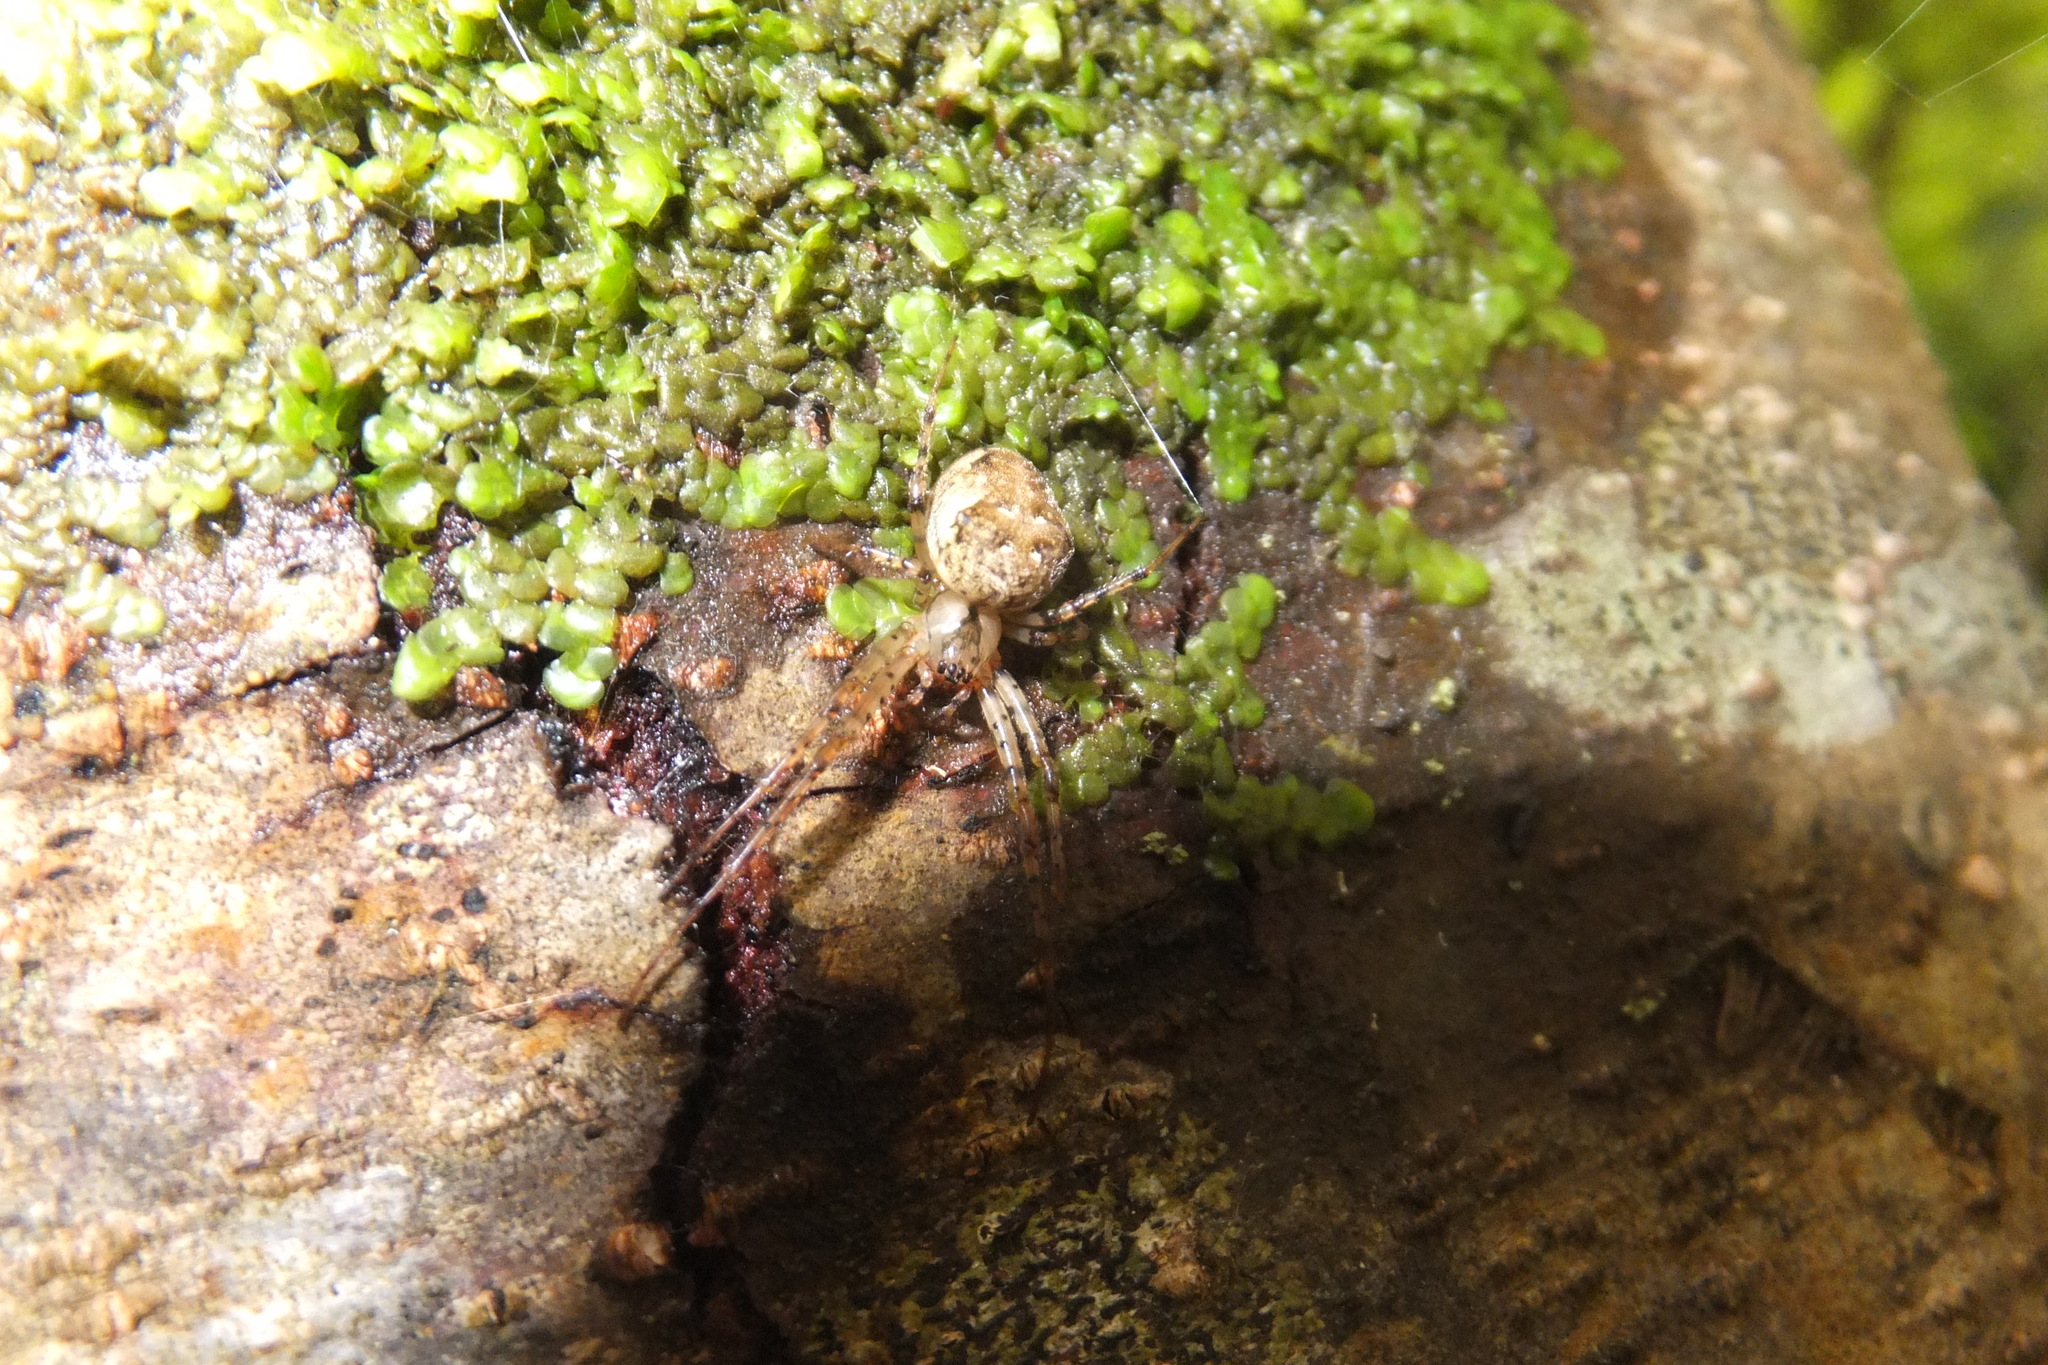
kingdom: Animalia
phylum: Arthropoda
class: Arachnida
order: Araneae
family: Tetragnathidae
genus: Metellina
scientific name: Metellina merianae
